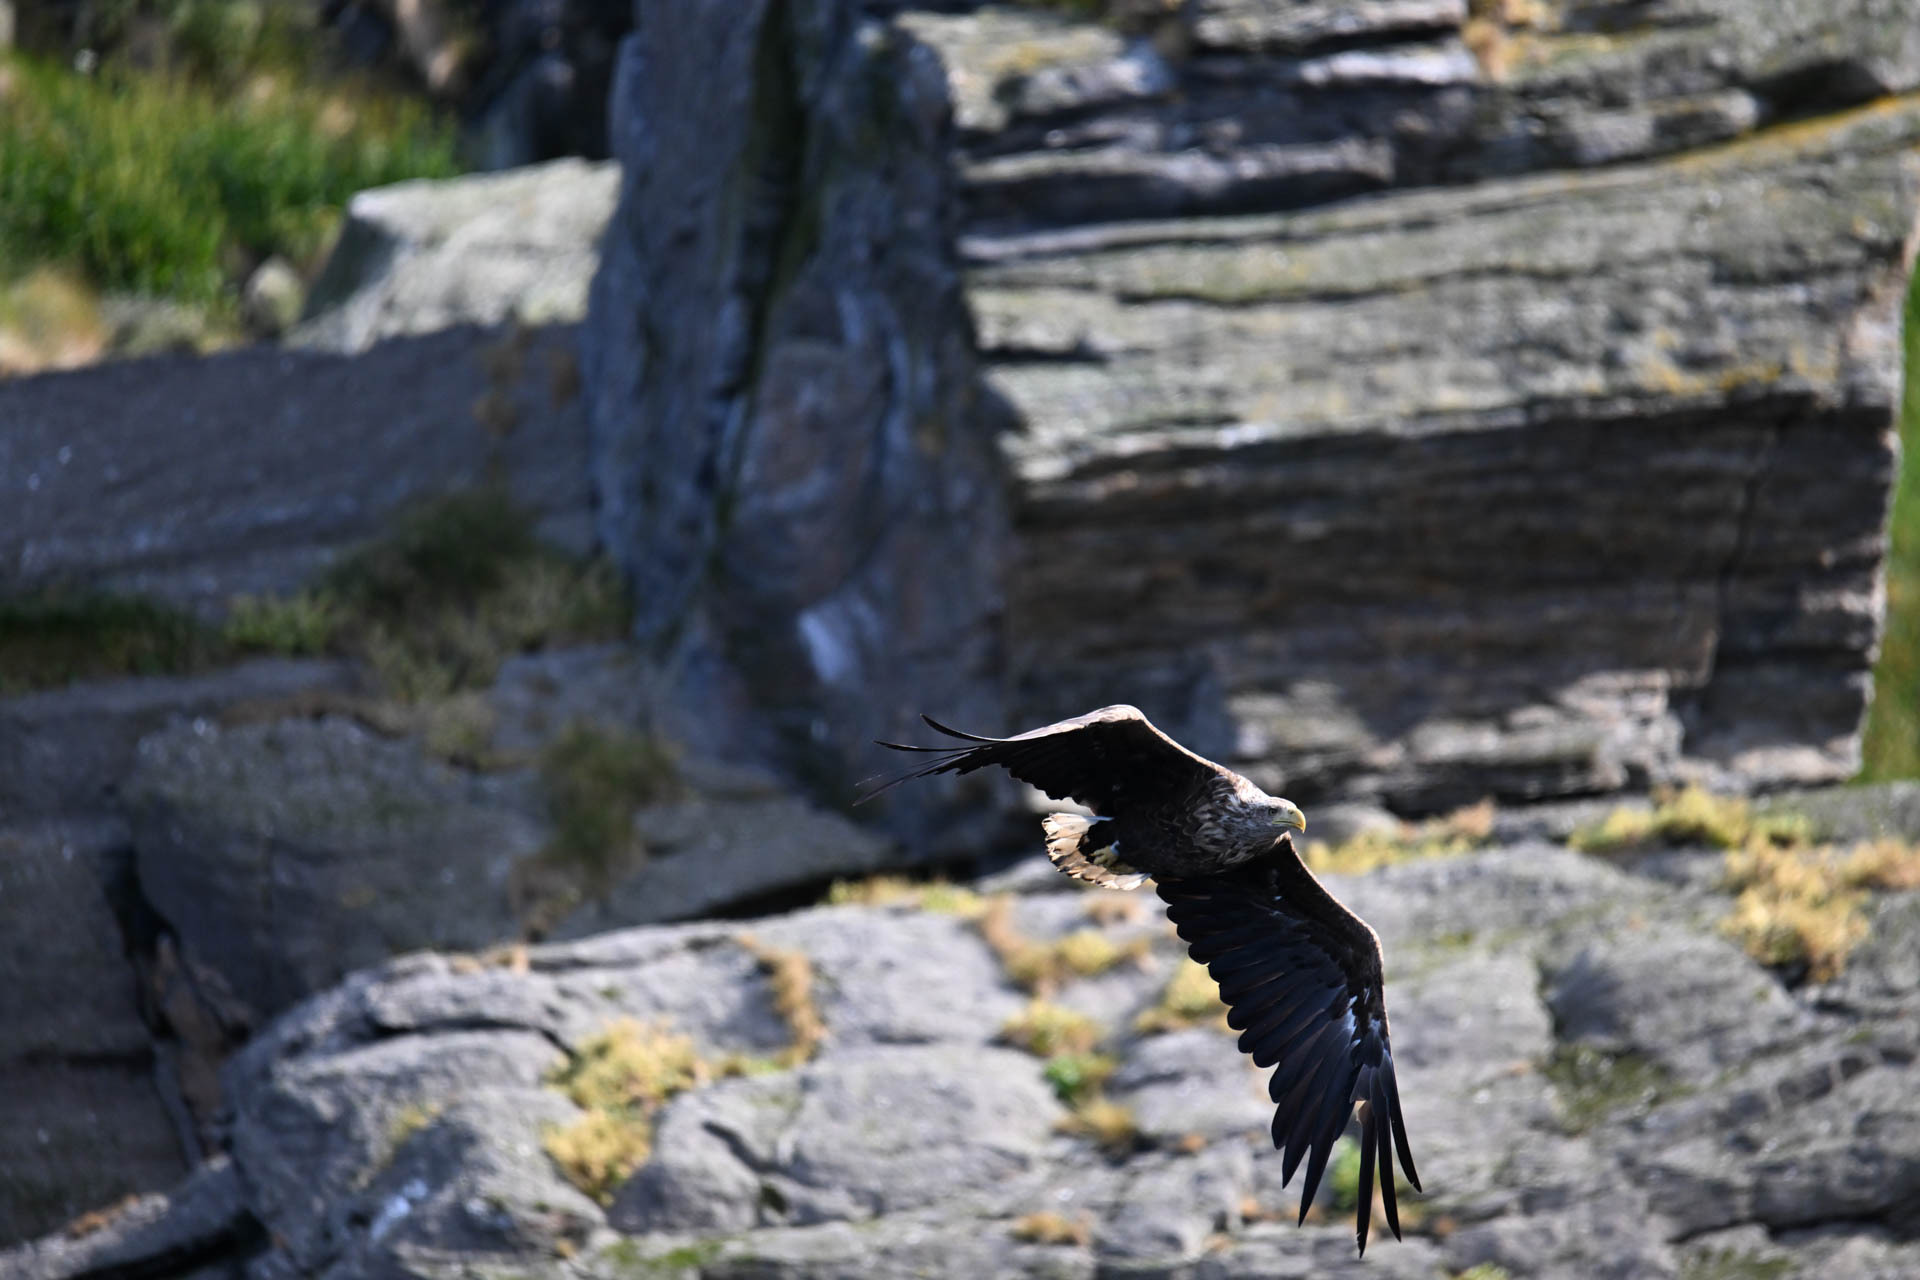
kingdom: Animalia
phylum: Chordata
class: Aves
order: Accipitriformes
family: Accipitridae
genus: Haliaeetus
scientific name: Haliaeetus albicilla
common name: White-tailed eagle
